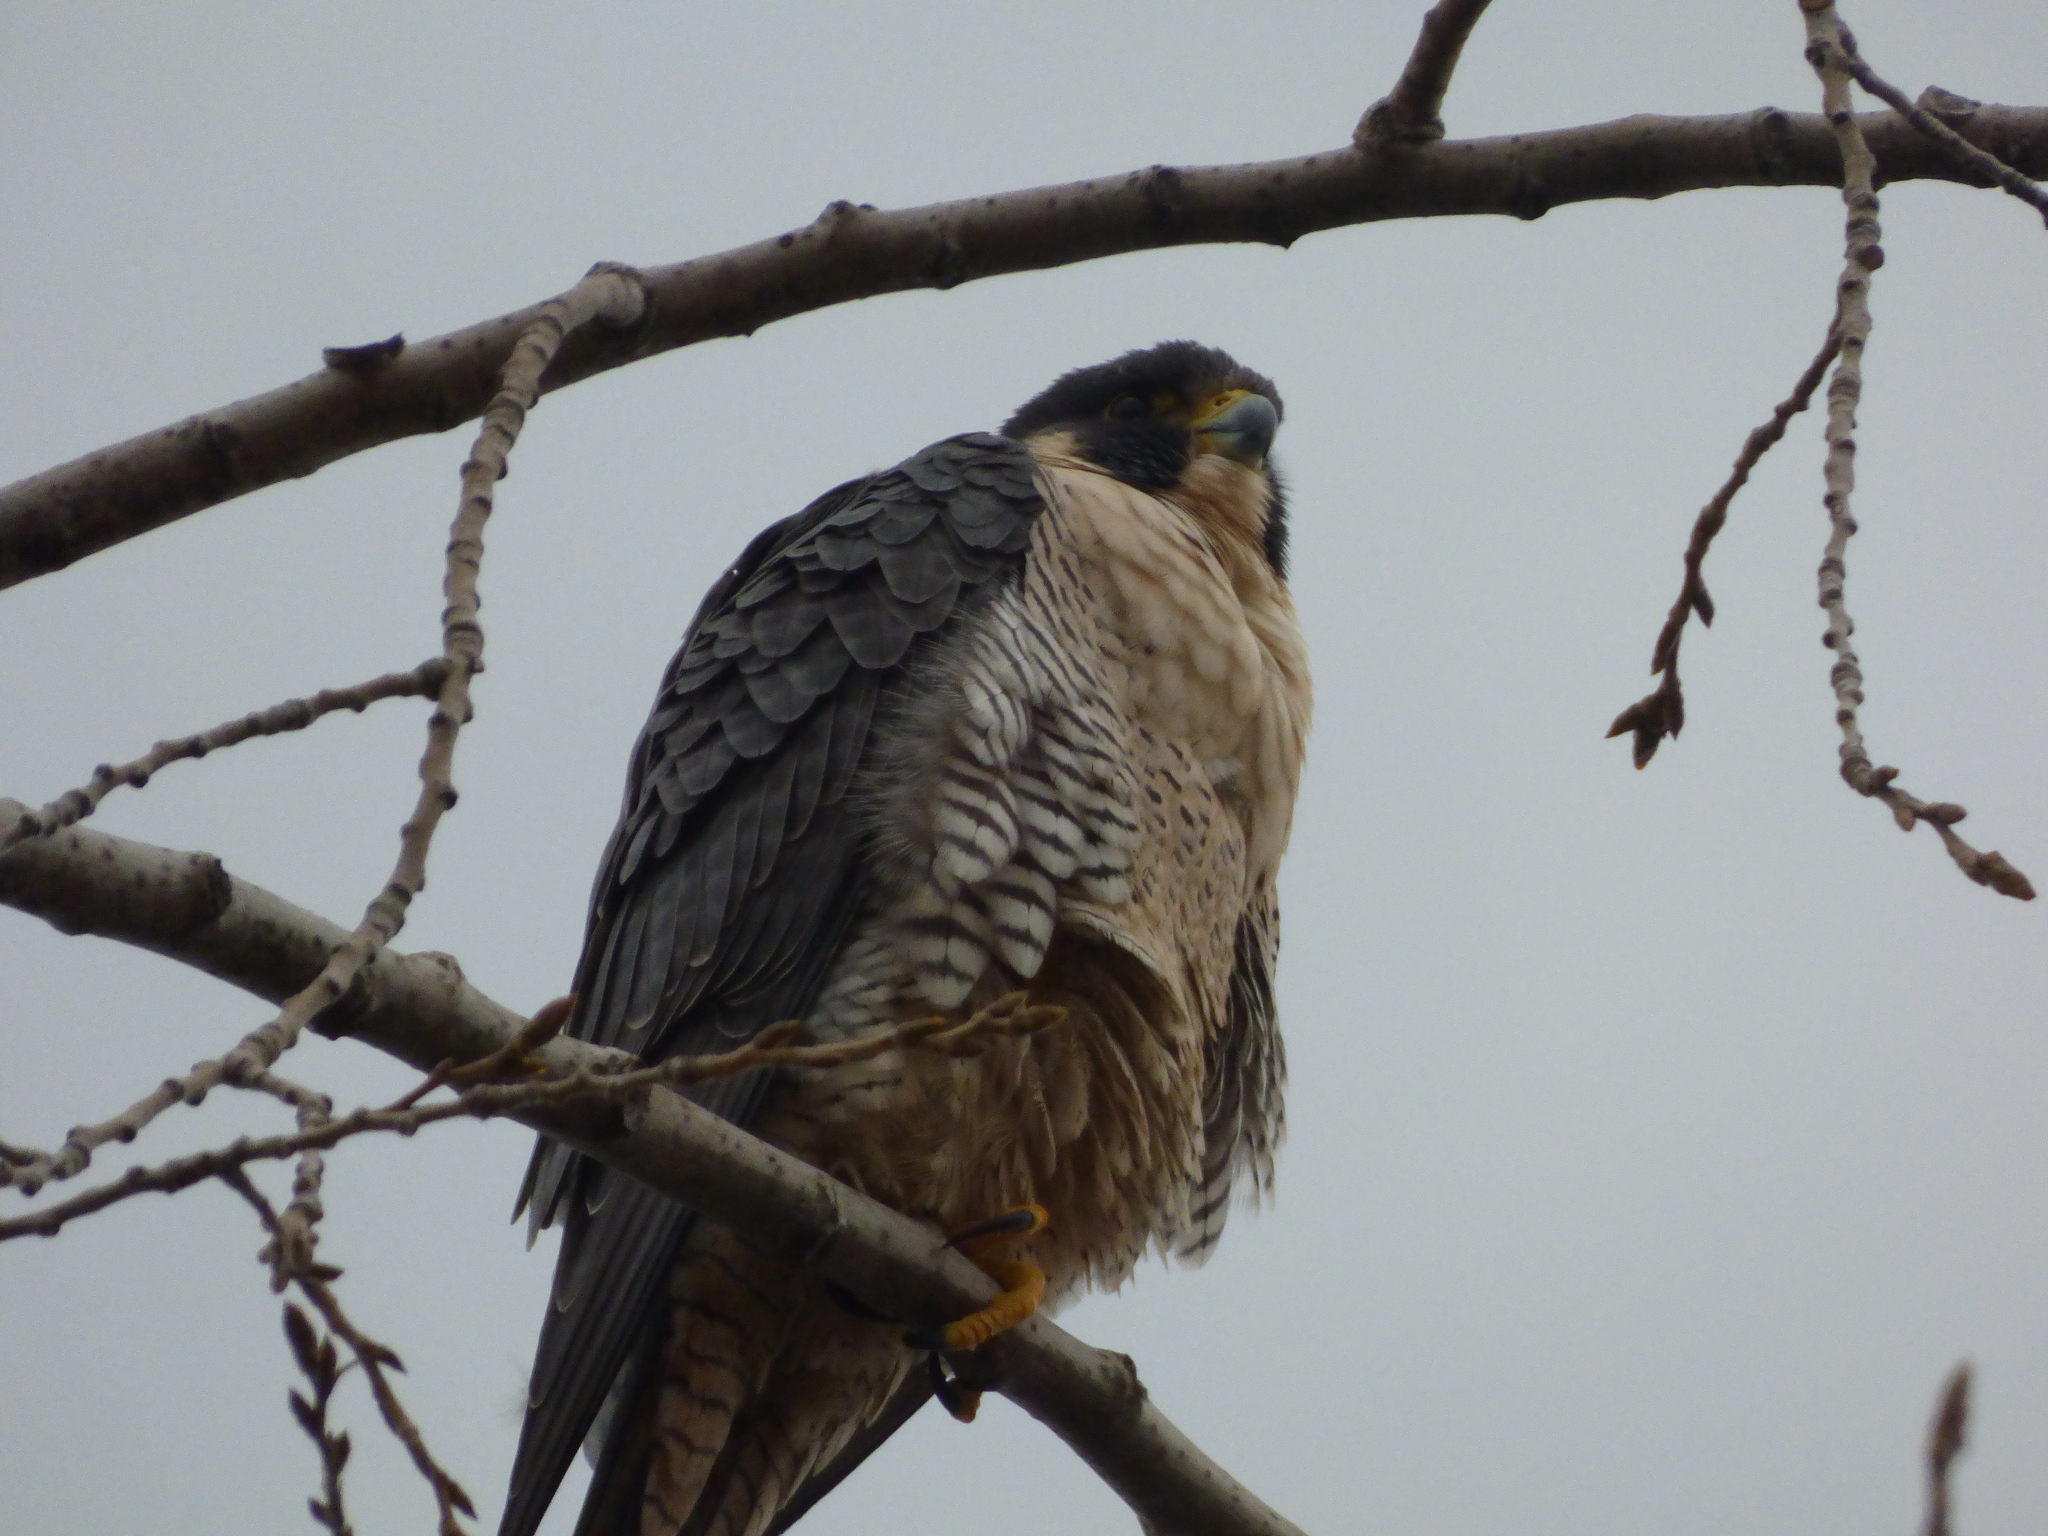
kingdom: Animalia
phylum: Chordata
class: Aves
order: Falconiformes
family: Falconidae
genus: Falco
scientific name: Falco peregrinus
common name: Peregrine falcon
